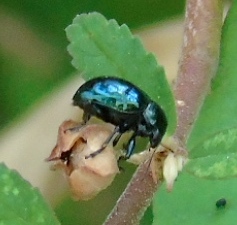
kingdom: Animalia
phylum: Arthropoda
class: Insecta
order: Coleoptera
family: Chrysomelidae
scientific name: Chrysomelidae
